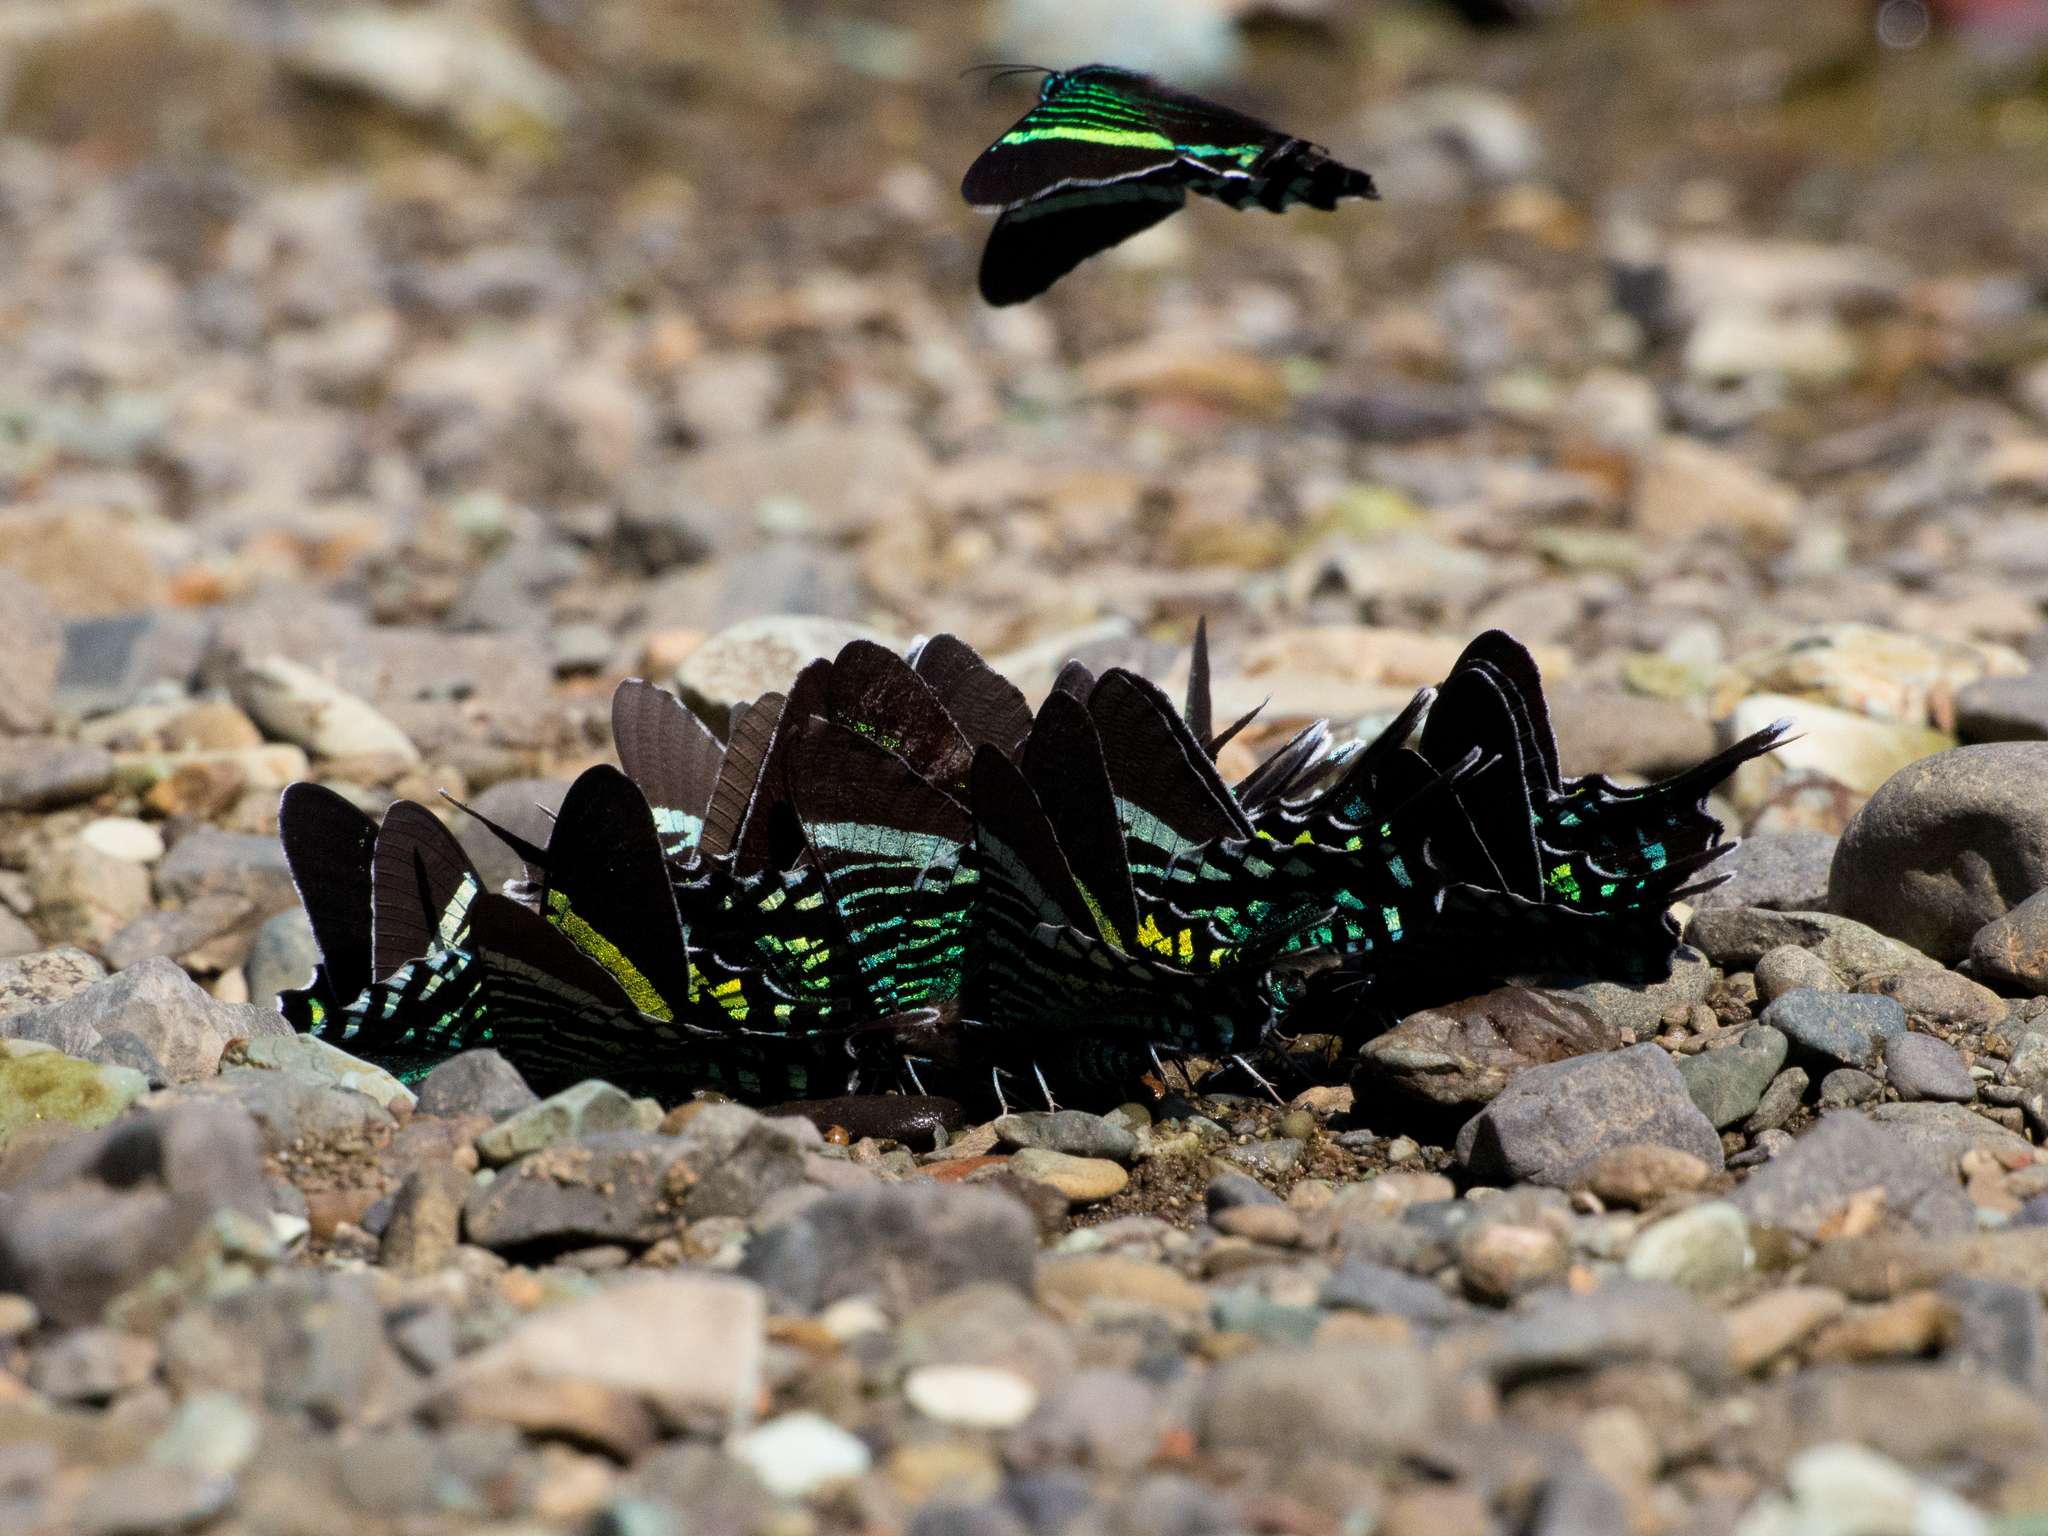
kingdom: Animalia
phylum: Arthropoda
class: Insecta
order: Lepidoptera
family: Uraniidae
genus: Urania
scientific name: Urania fulgens
